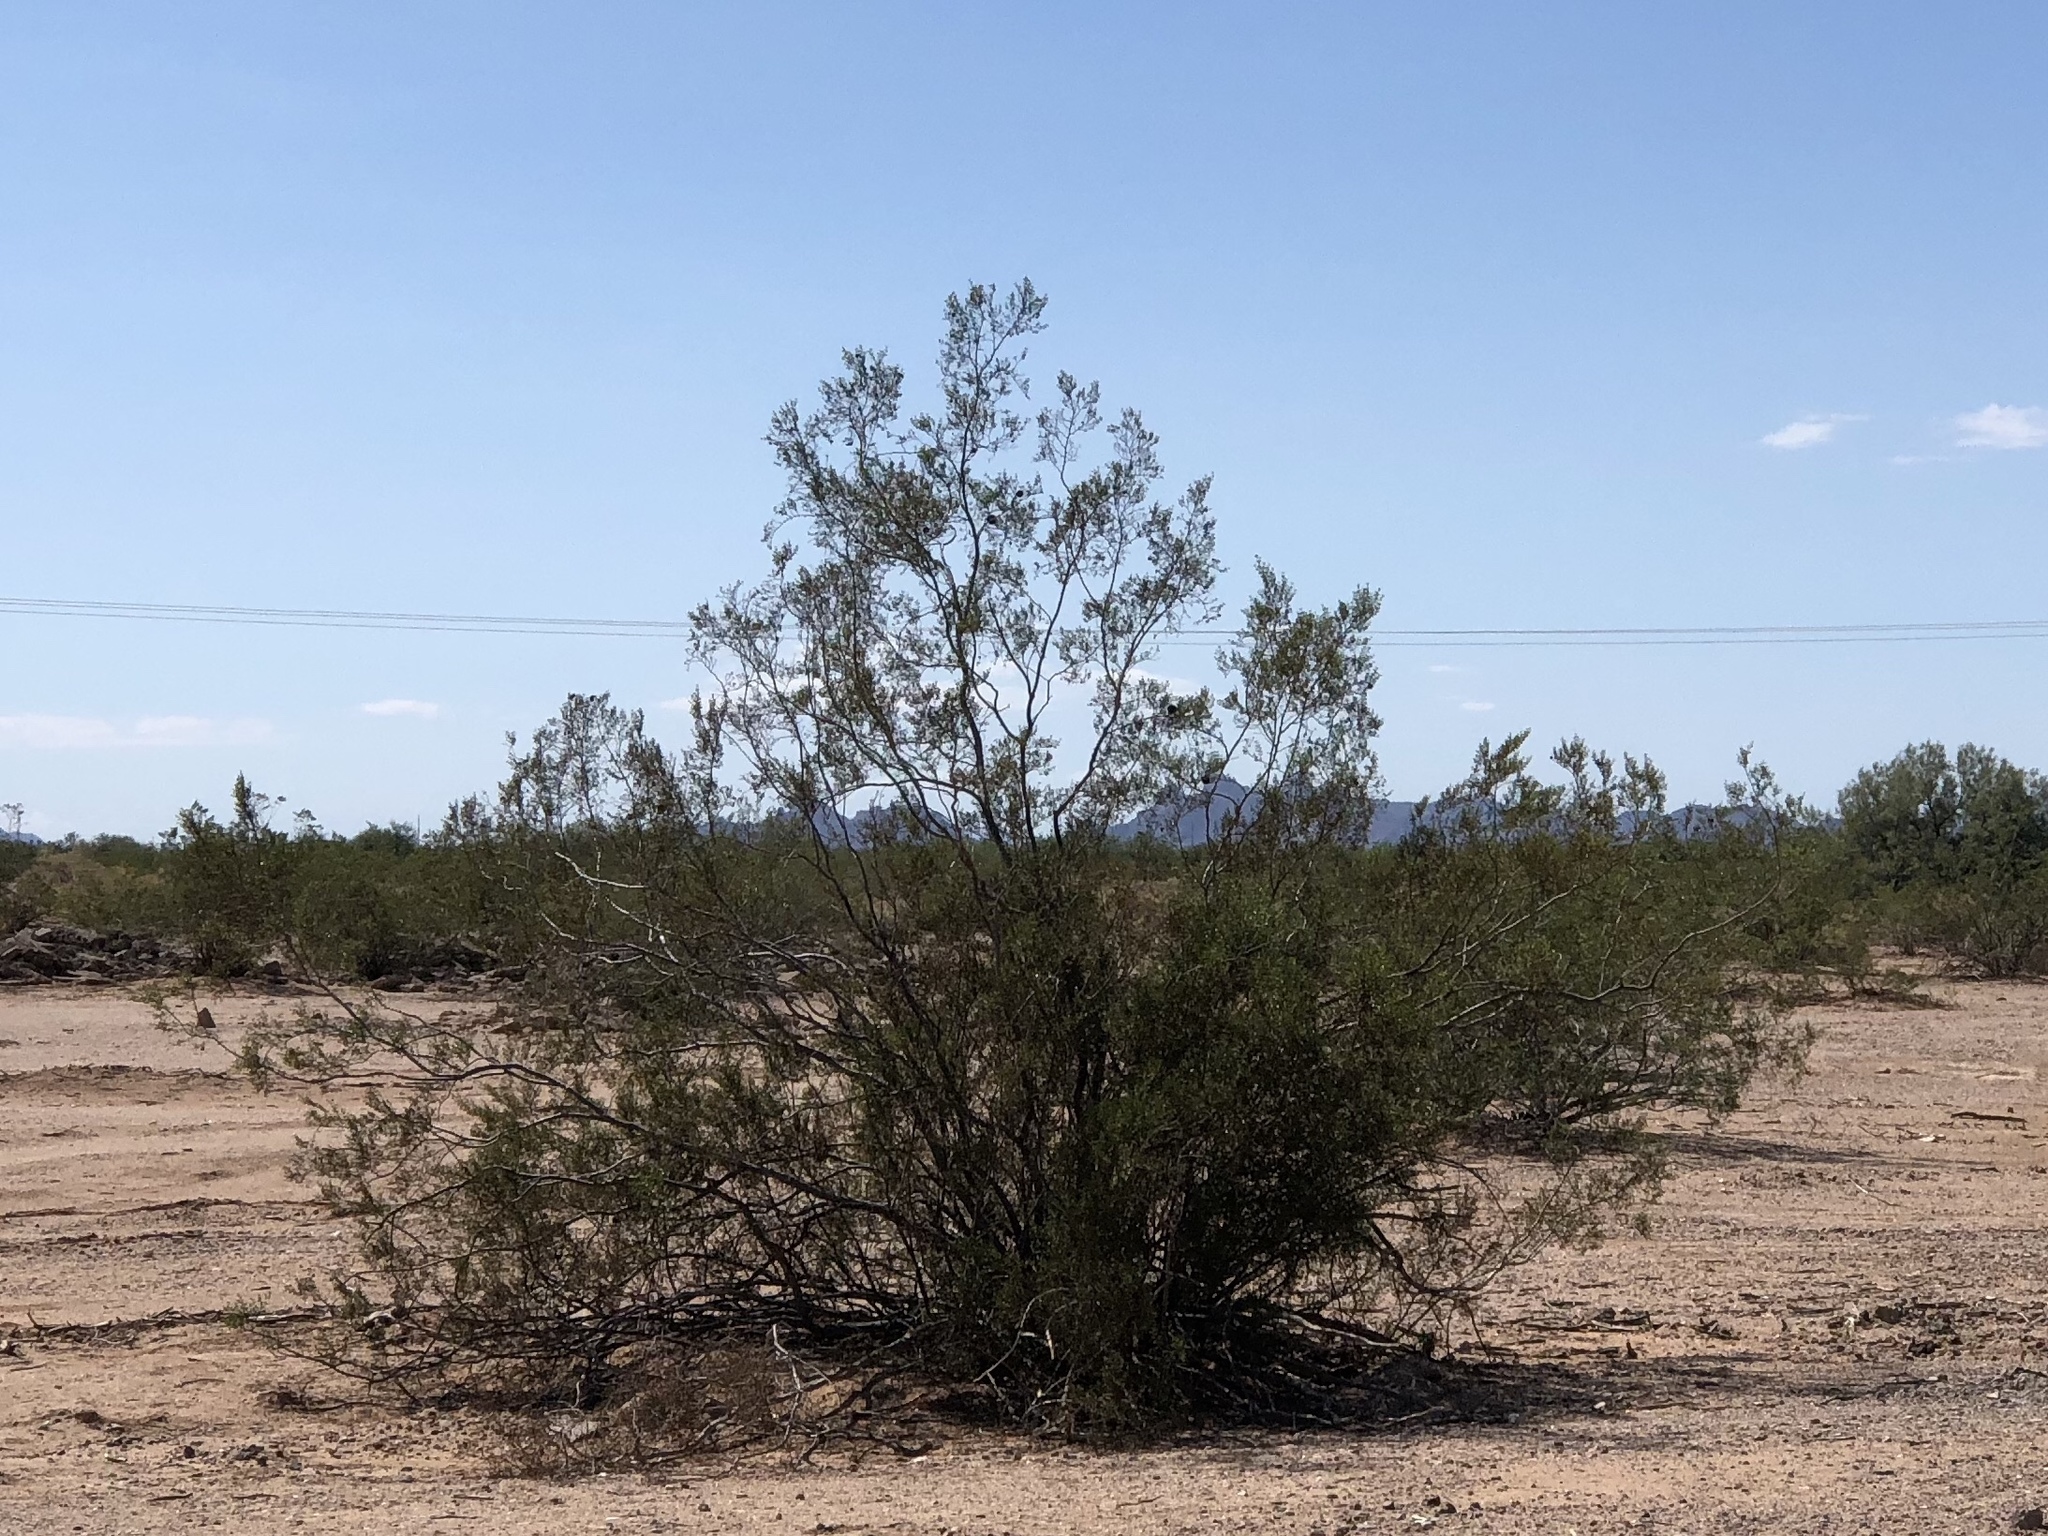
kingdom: Plantae
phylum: Tracheophyta
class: Magnoliopsida
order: Zygophyllales
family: Zygophyllaceae
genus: Larrea
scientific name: Larrea tridentata
